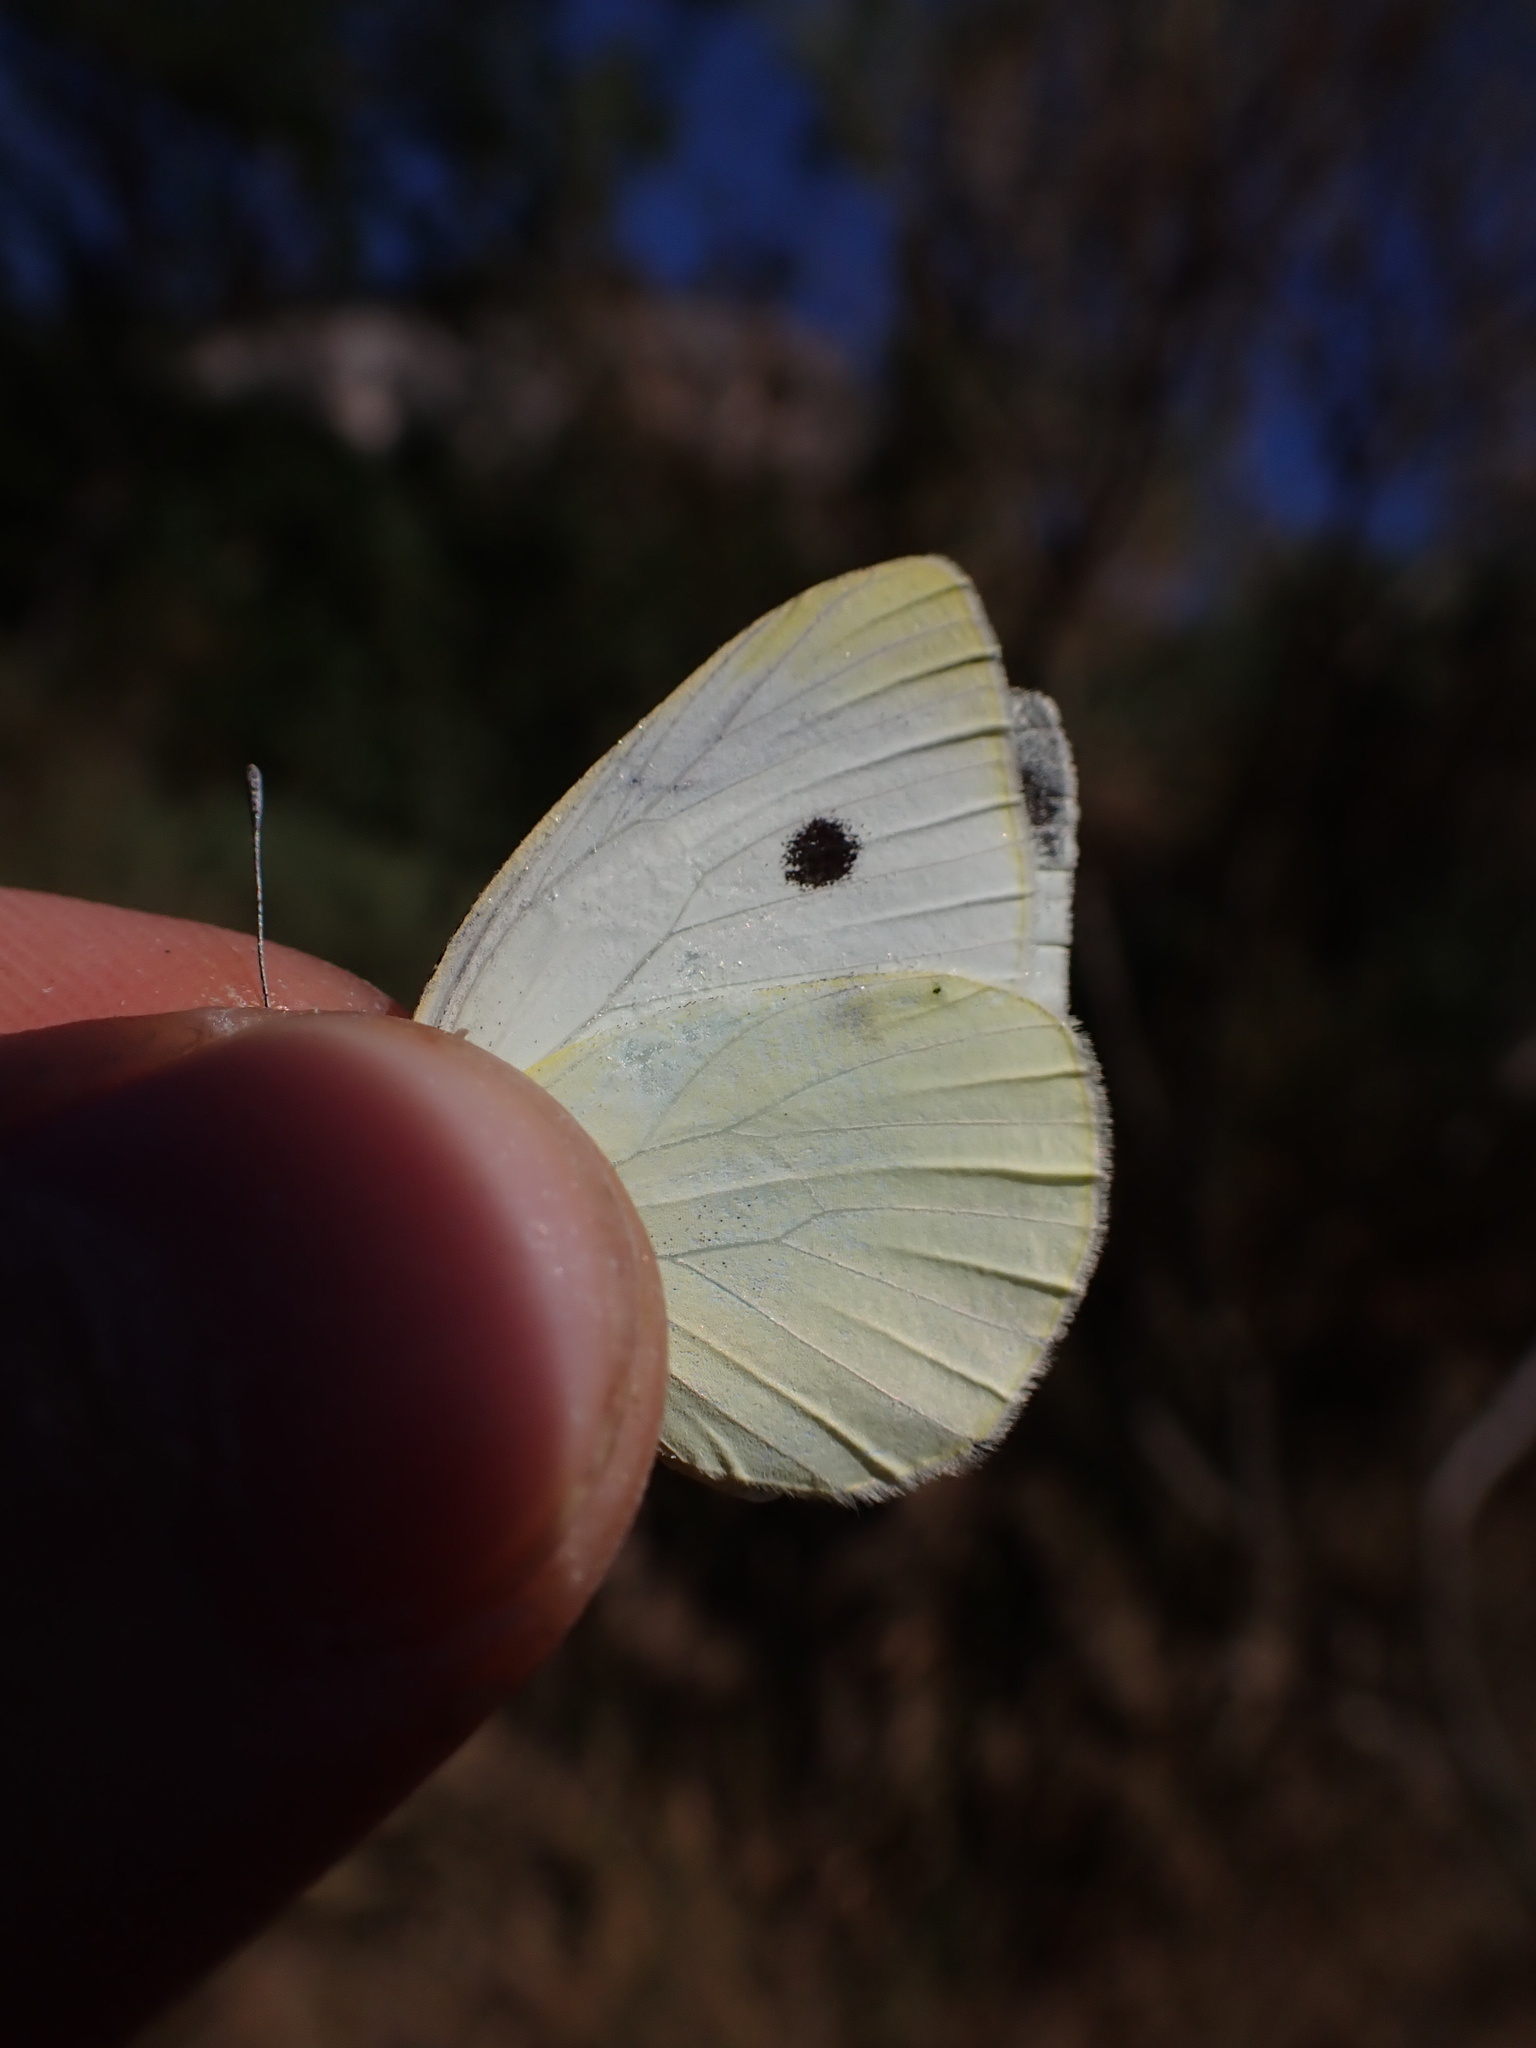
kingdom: Animalia
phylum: Arthropoda
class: Insecta
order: Lepidoptera
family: Pieridae
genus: Pieris
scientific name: Pieris rapae
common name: Small white
